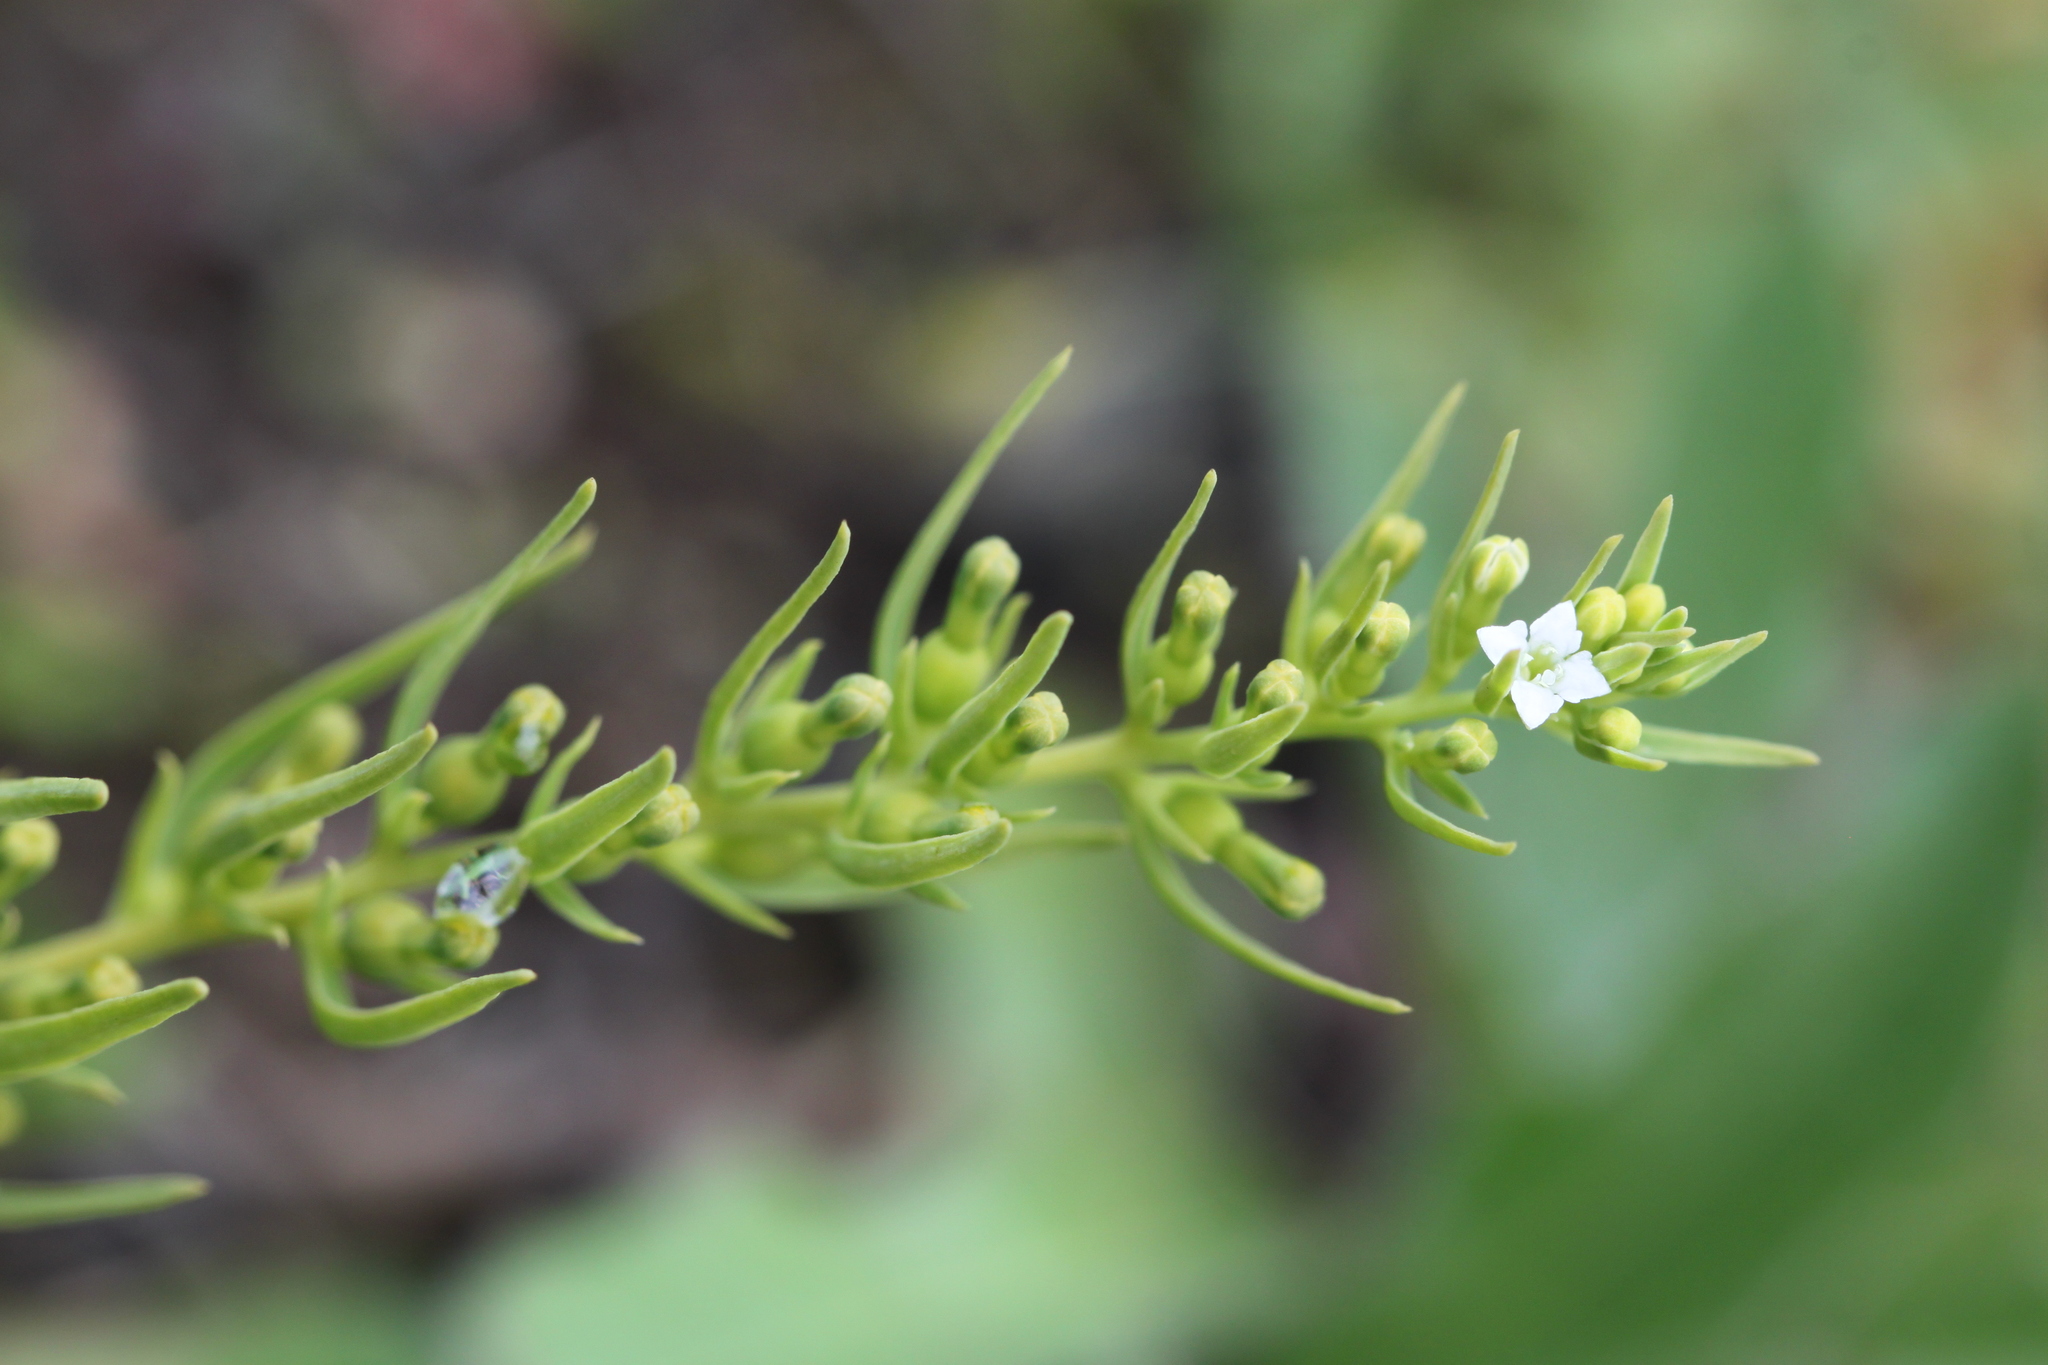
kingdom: Plantae
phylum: Tracheophyta
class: Magnoliopsida
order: Santalales
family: Thesiaceae
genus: Thesium
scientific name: Thesium alpinum
